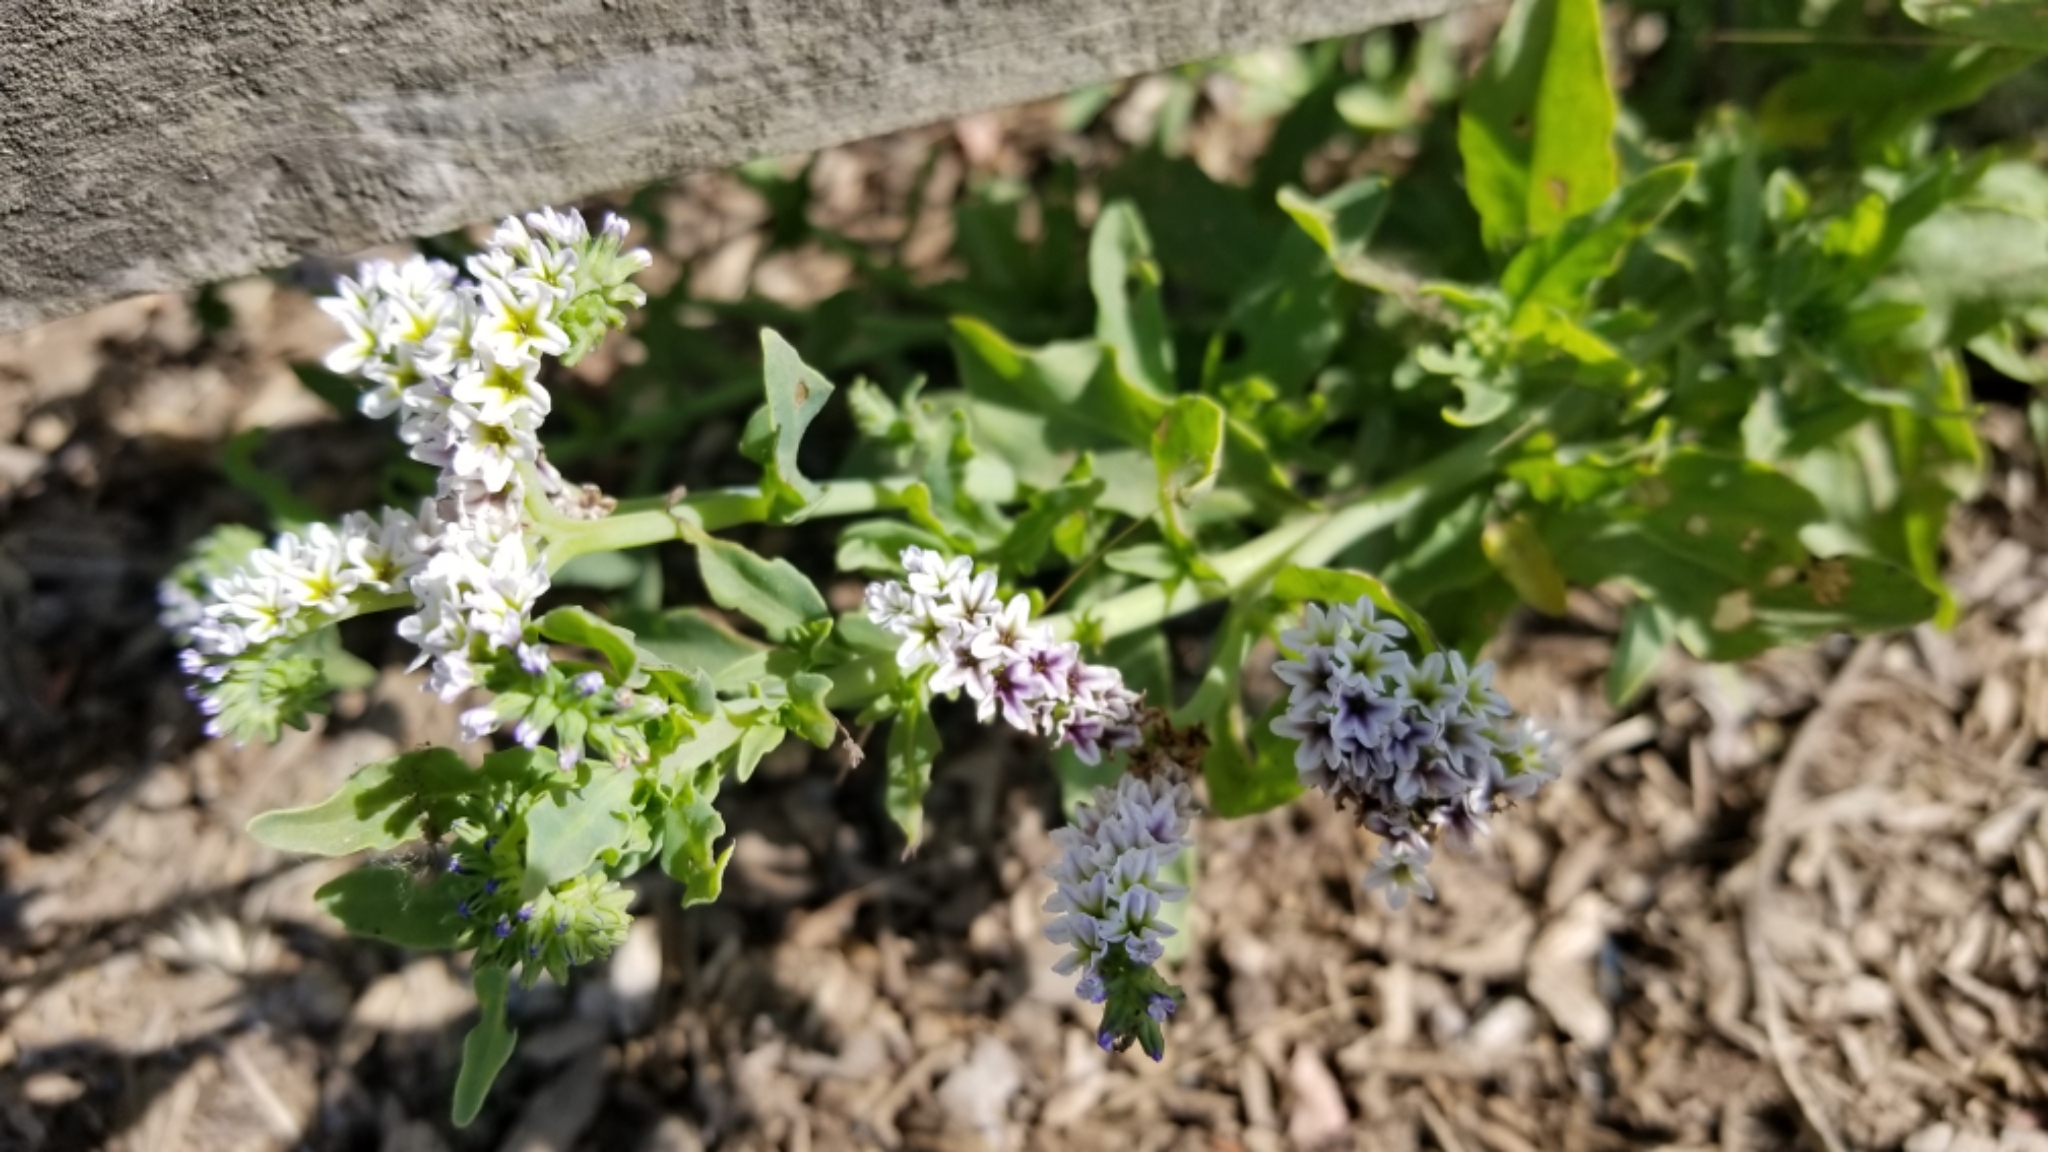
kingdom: Plantae
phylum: Tracheophyta
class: Magnoliopsida
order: Boraginales
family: Heliotropiaceae
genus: Heliotropium
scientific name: Heliotropium curassavicum
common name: Seaside heliotrope
